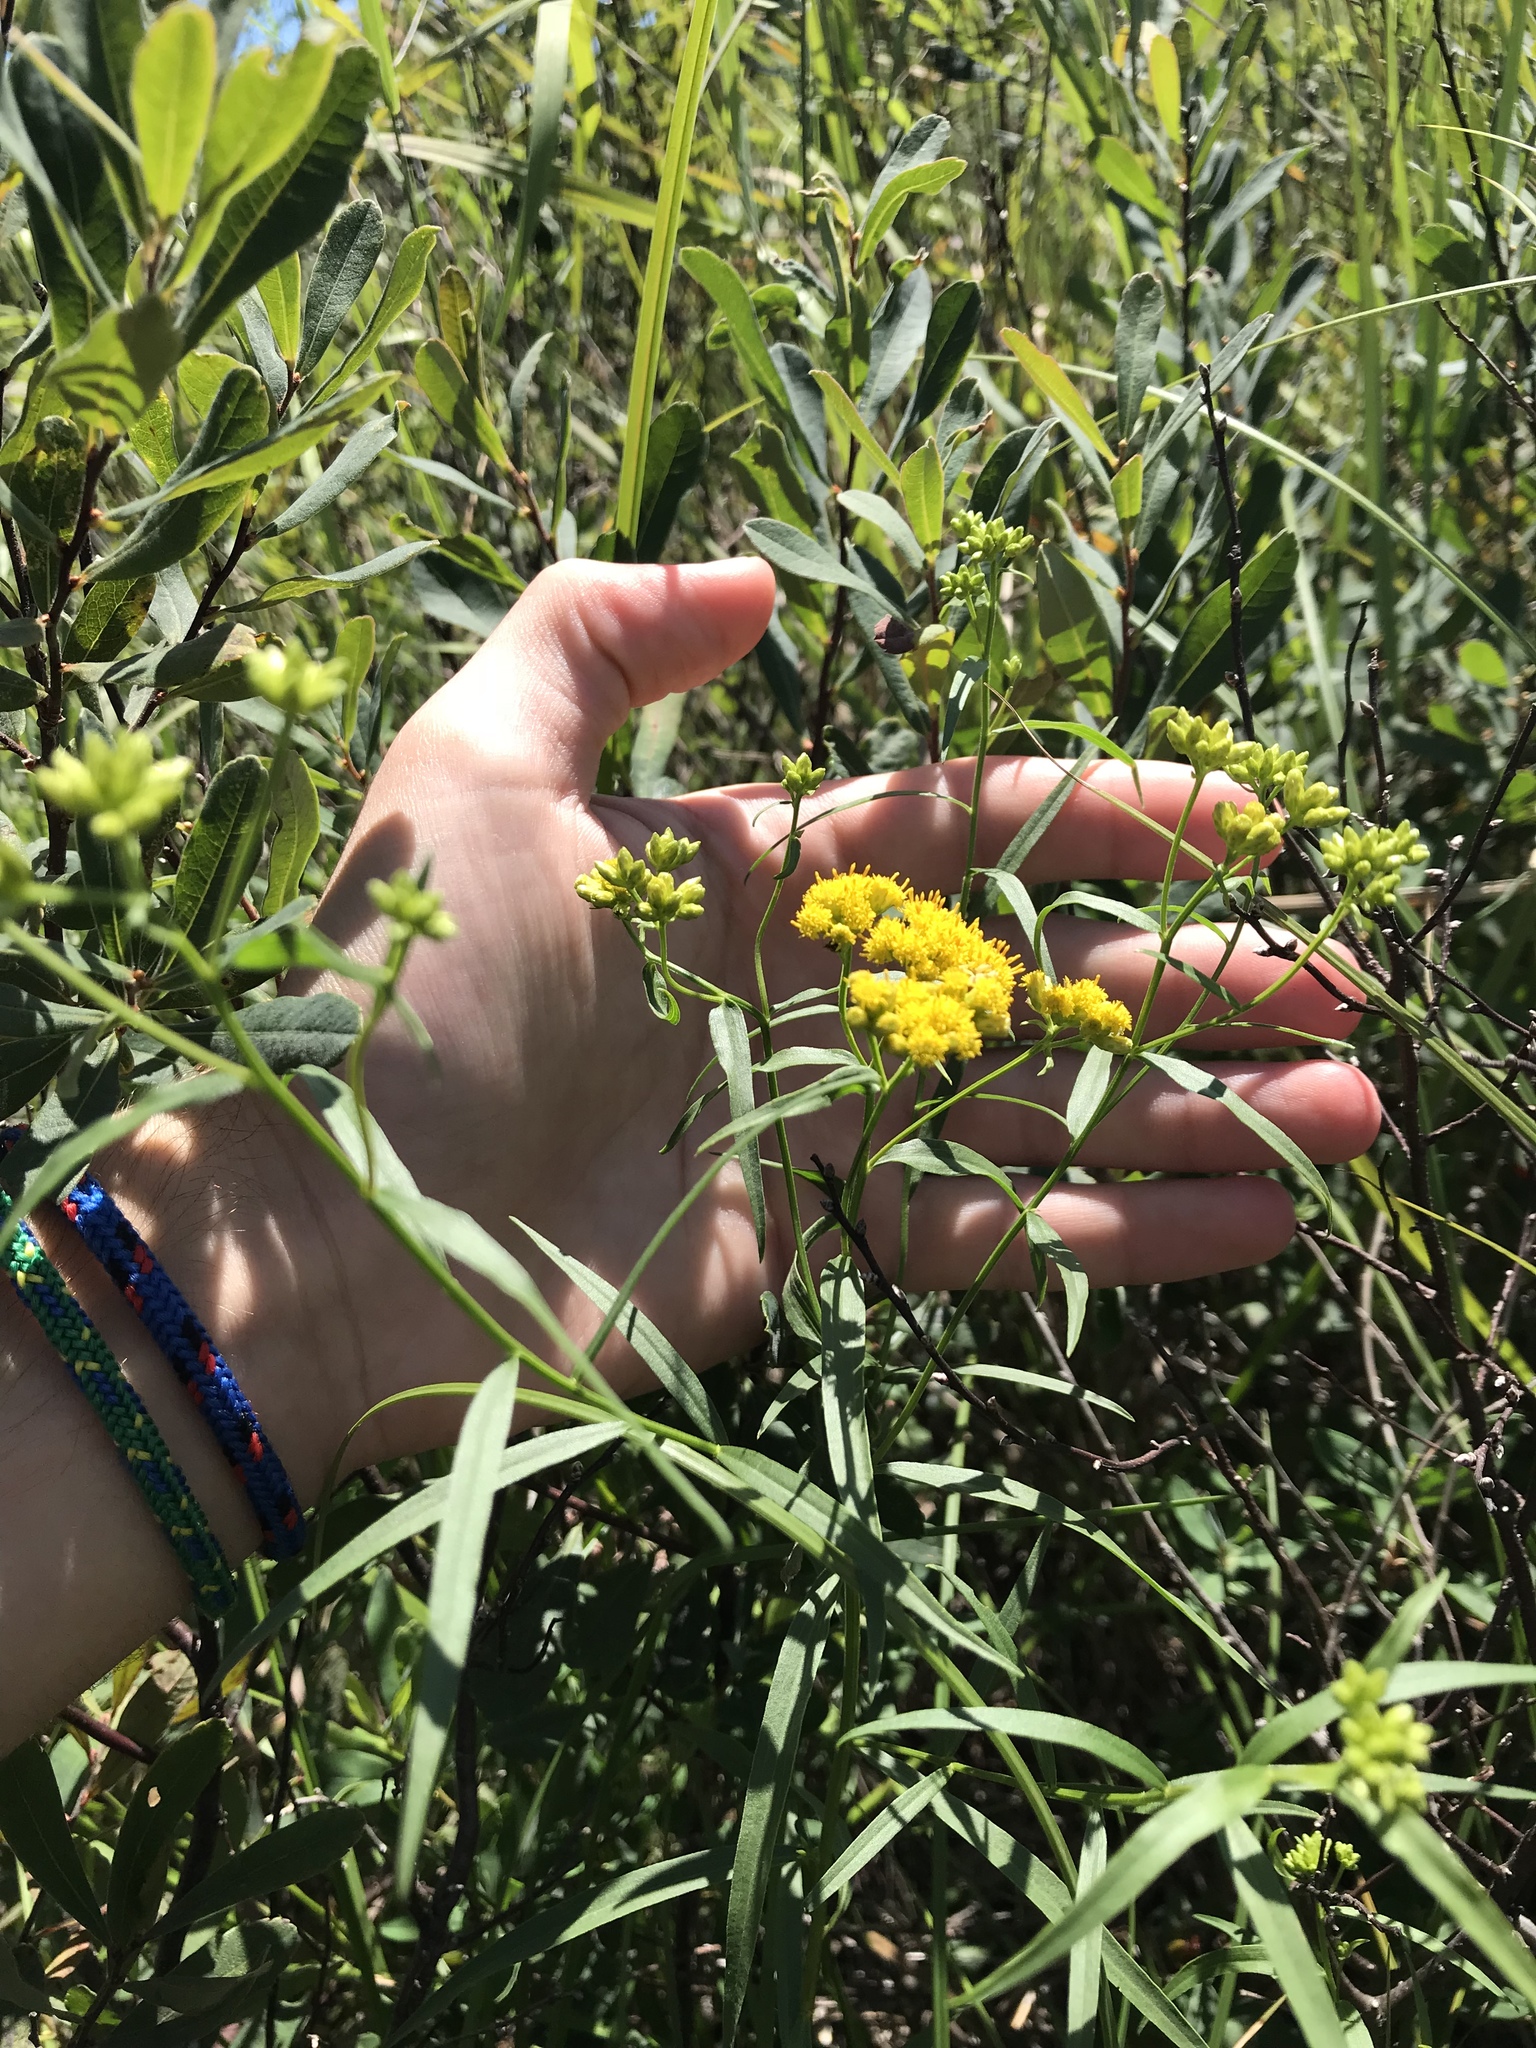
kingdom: Plantae
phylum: Tracheophyta
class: Magnoliopsida
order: Asterales
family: Asteraceae
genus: Euthamia
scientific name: Euthamia graminifolia
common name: Common goldentop
